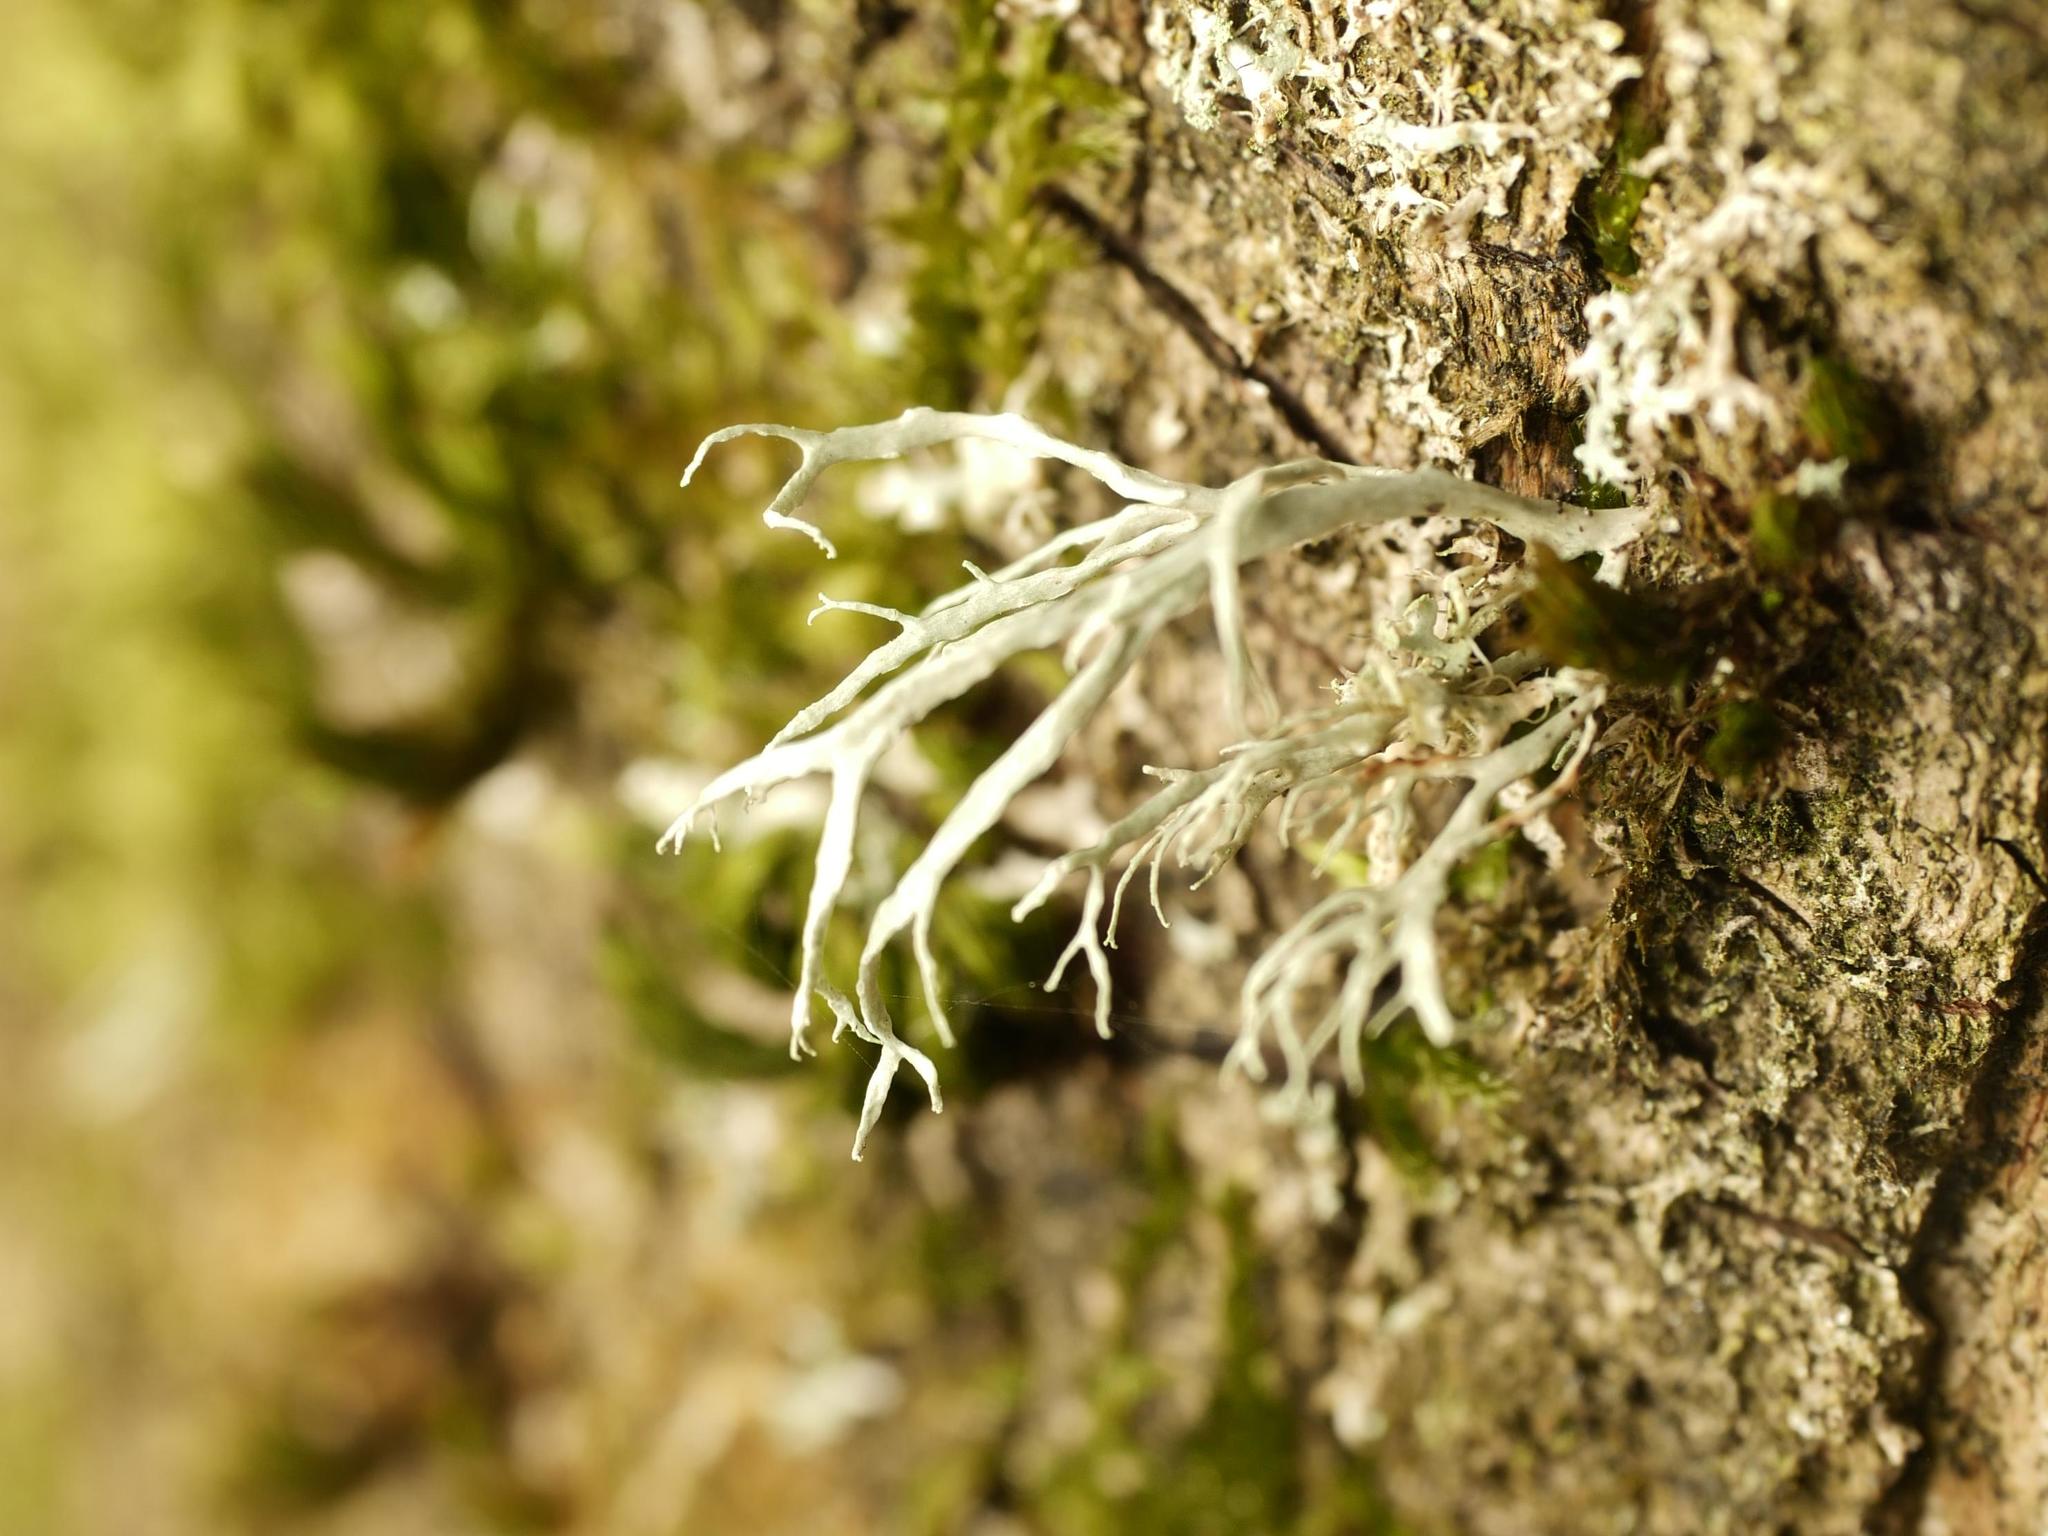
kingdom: Fungi
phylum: Ascomycota
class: Lecanoromycetes
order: Lecanorales
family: Ramalinaceae
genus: Ramalina
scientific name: Ramalina farinacea
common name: Farinose cartilage lichen
